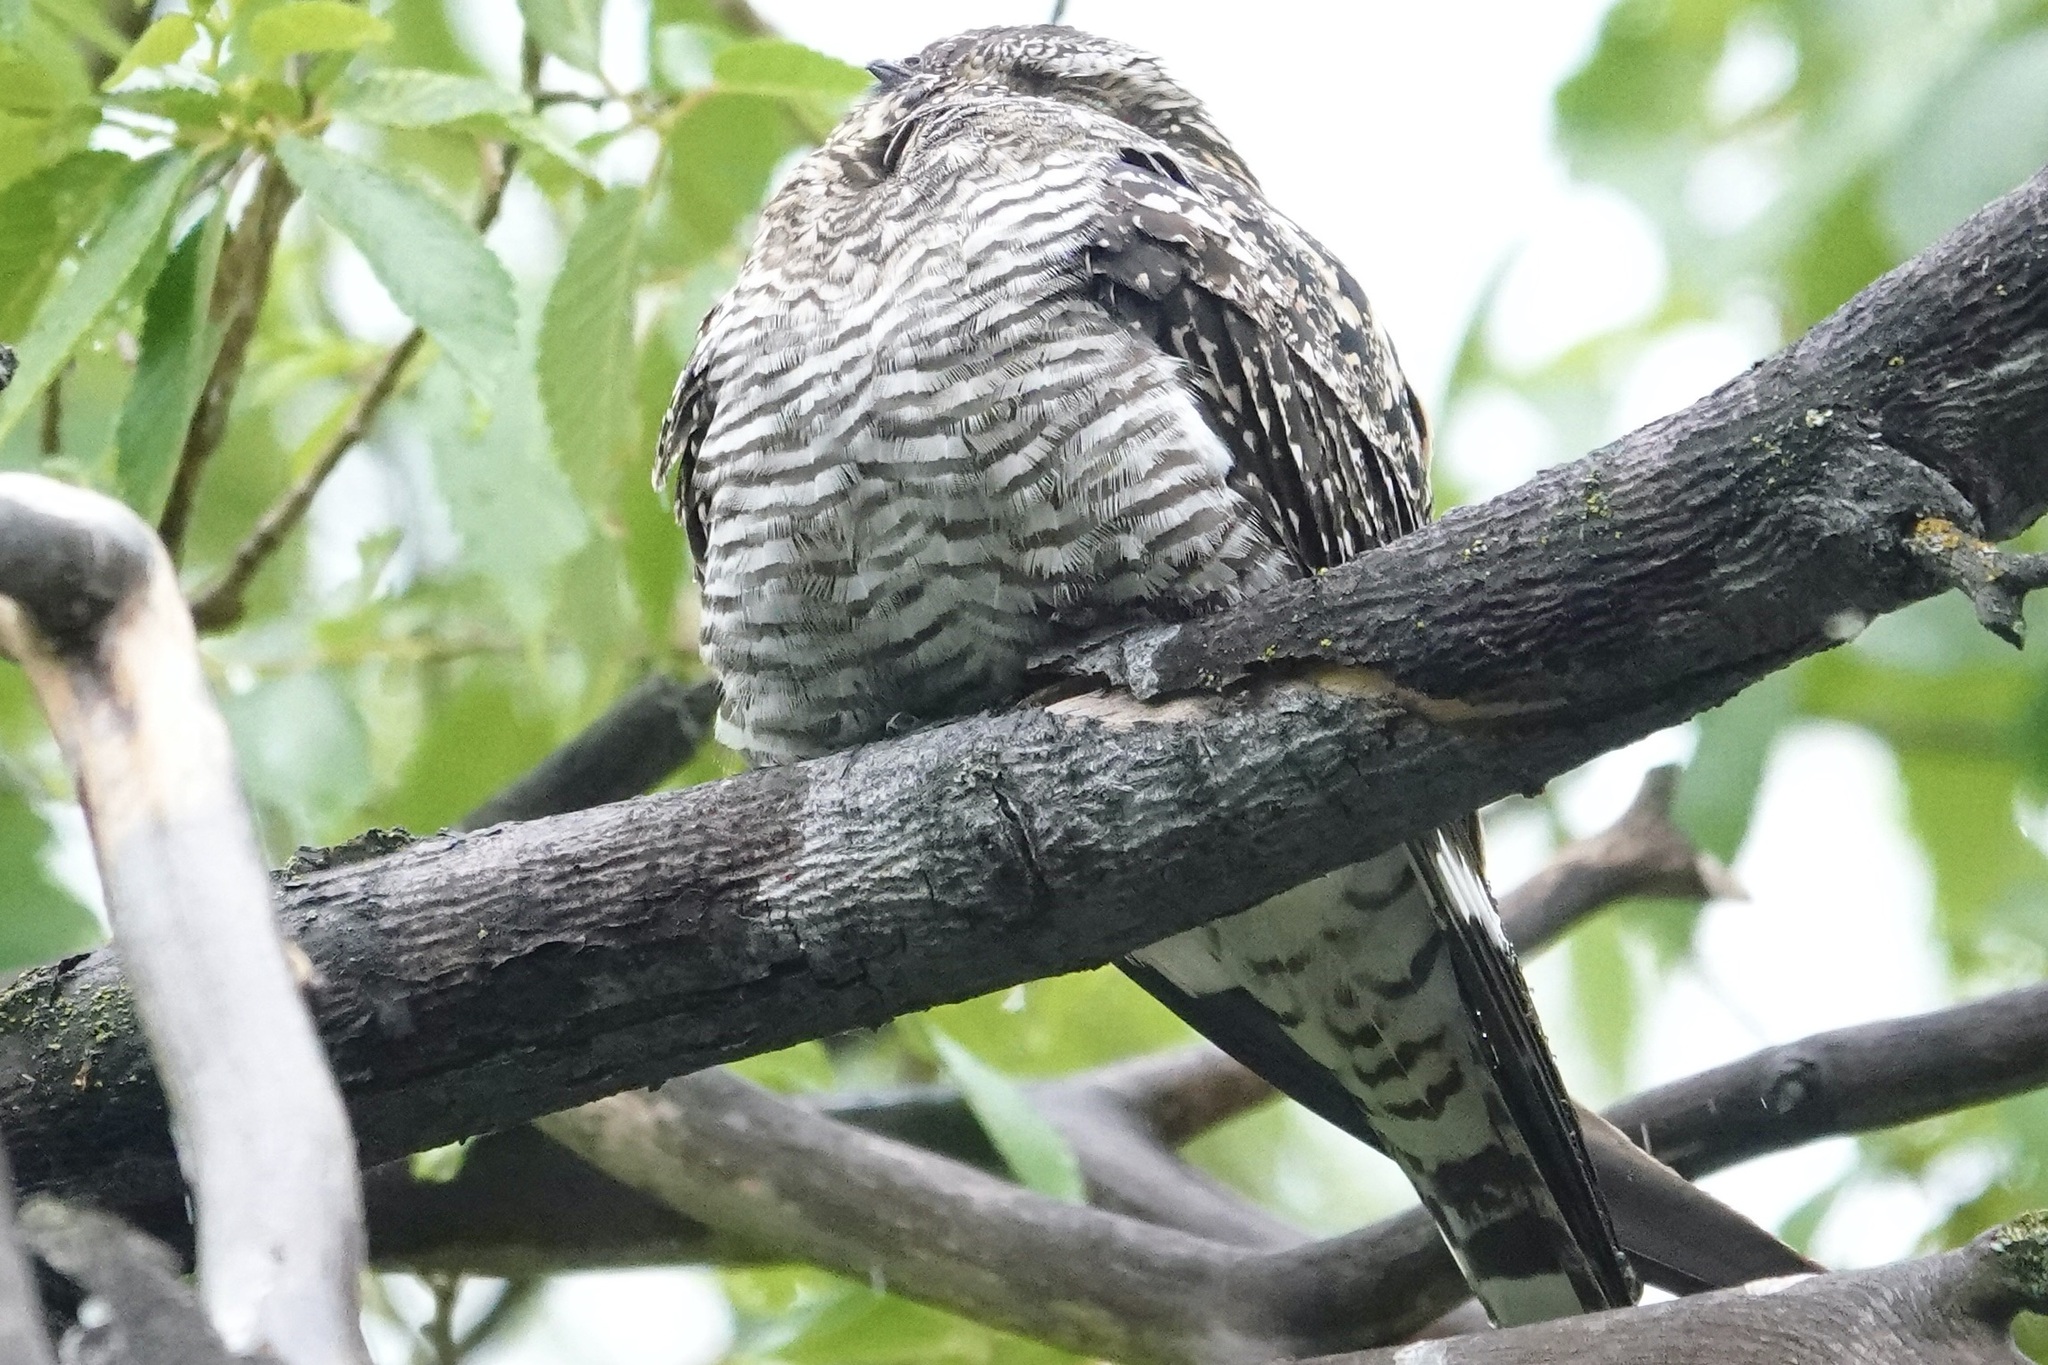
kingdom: Animalia
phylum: Chordata
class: Aves
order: Caprimulgiformes
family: Caprimulgidae
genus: Chordeiles
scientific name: Chordeiles minor
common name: Common nighthawk
